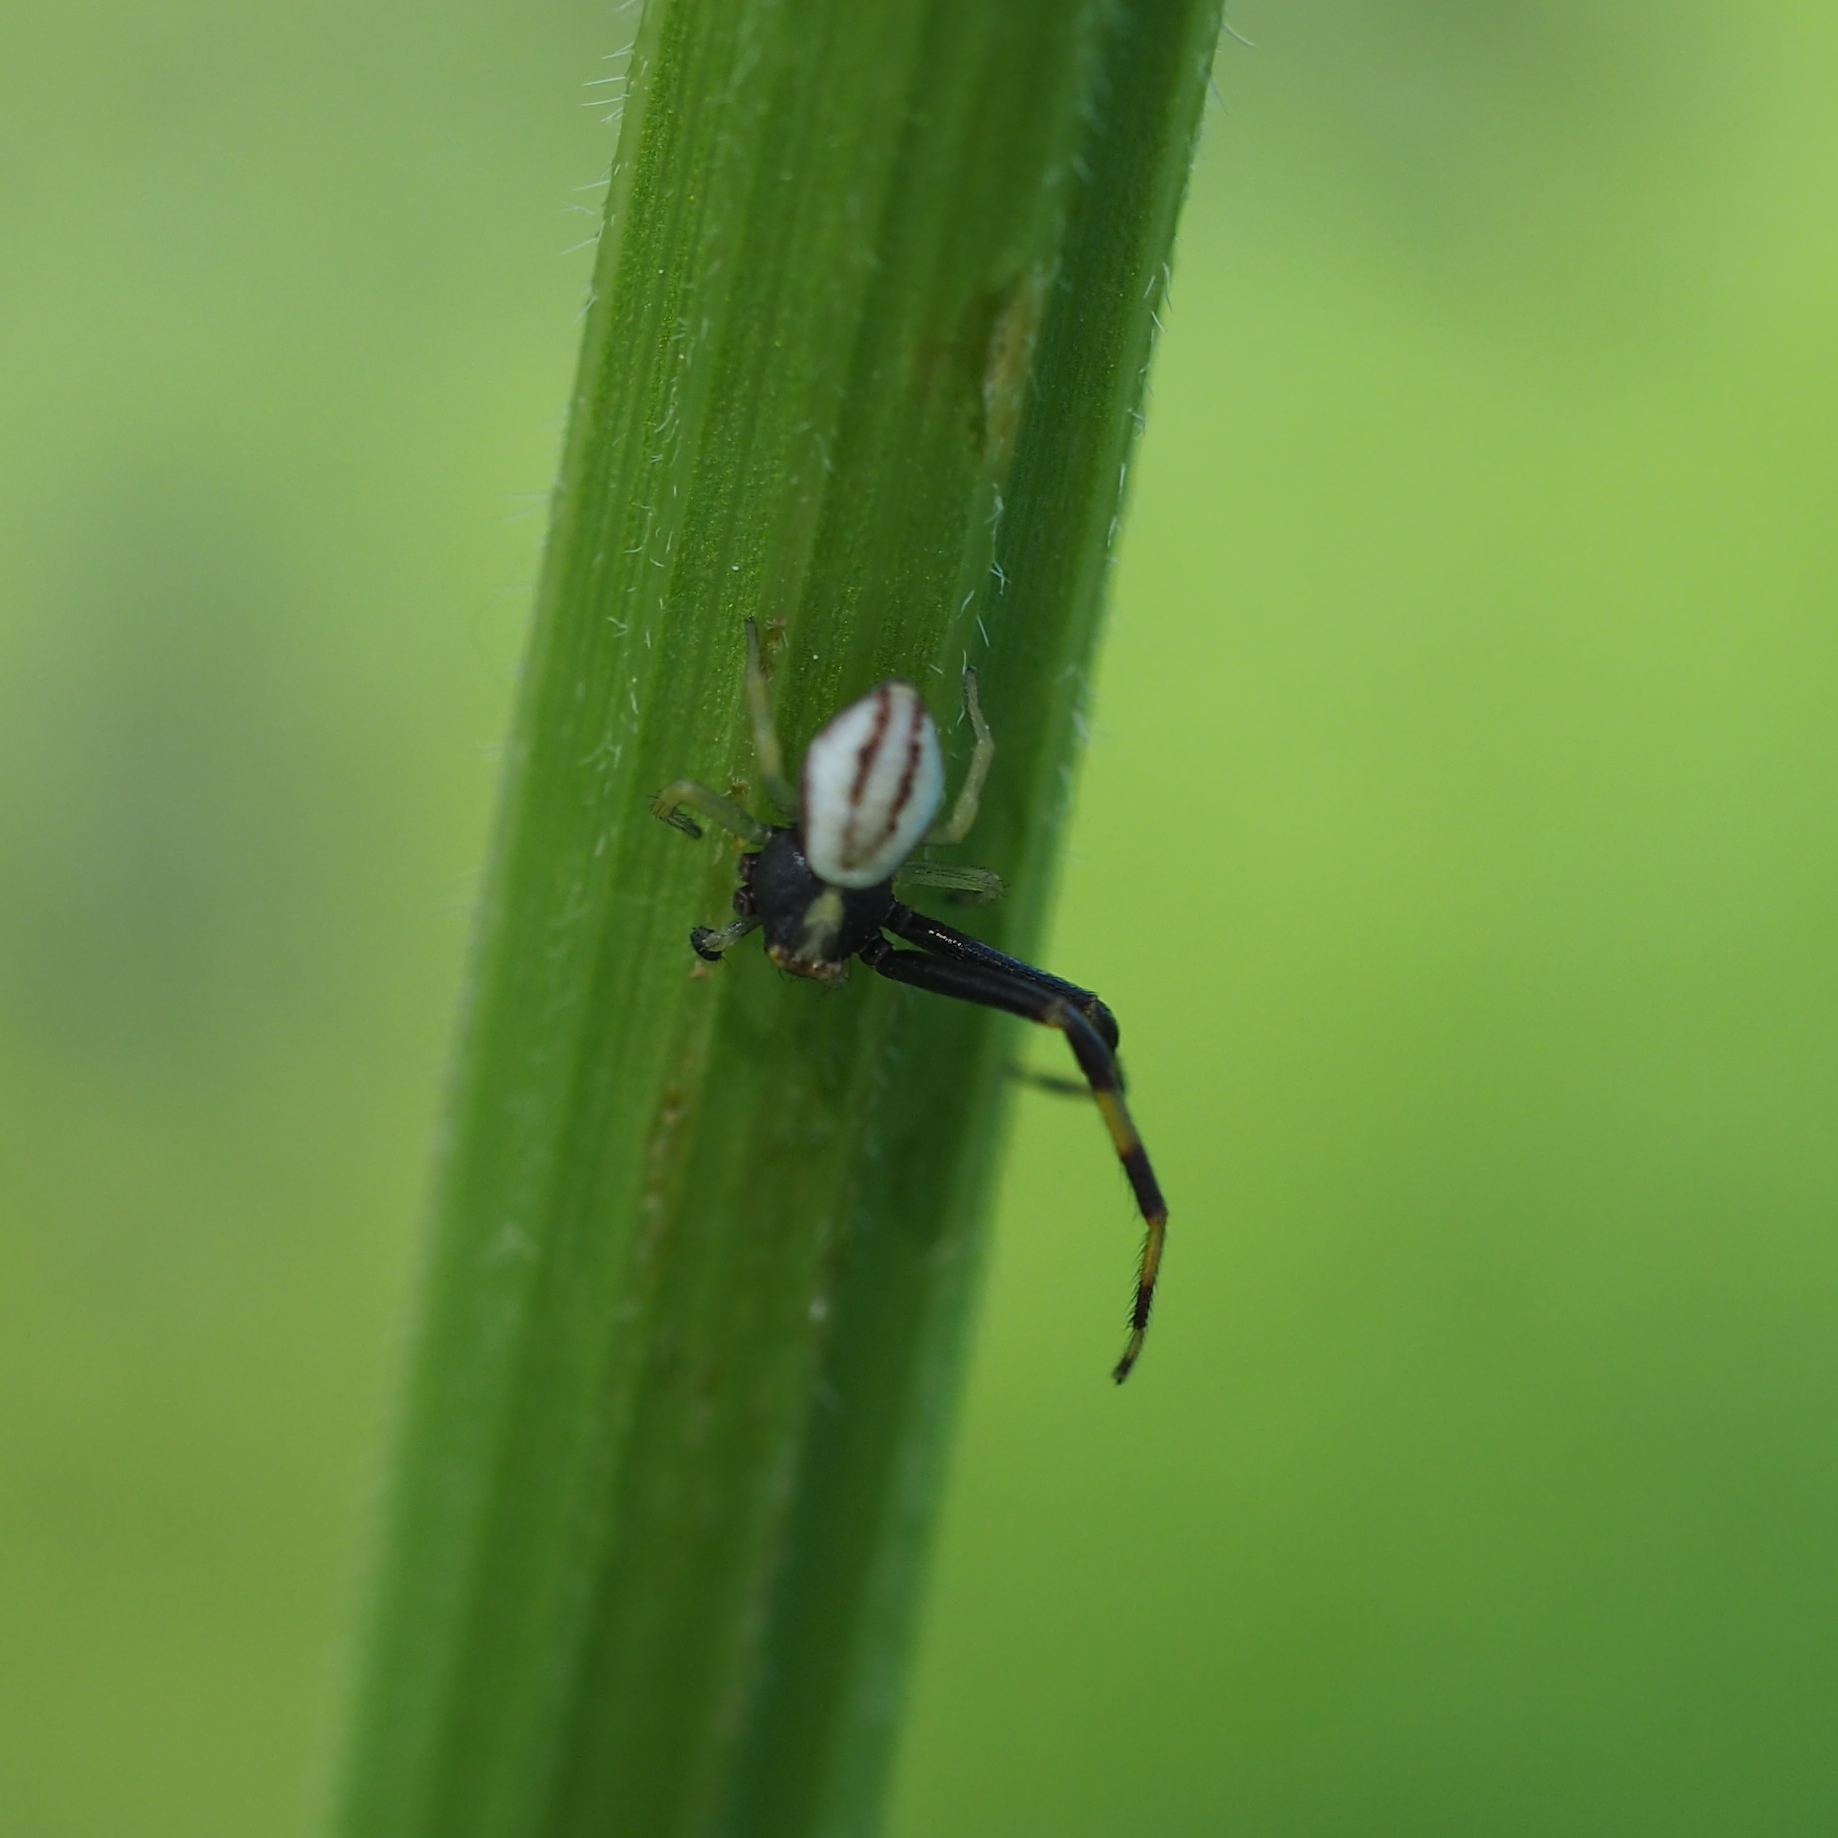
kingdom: Animalia
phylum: Arthropoda
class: Arachnida
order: Araneae
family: Thomisidae
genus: Misumena
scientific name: Misumena vatia
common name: Goldenrod crab spider
